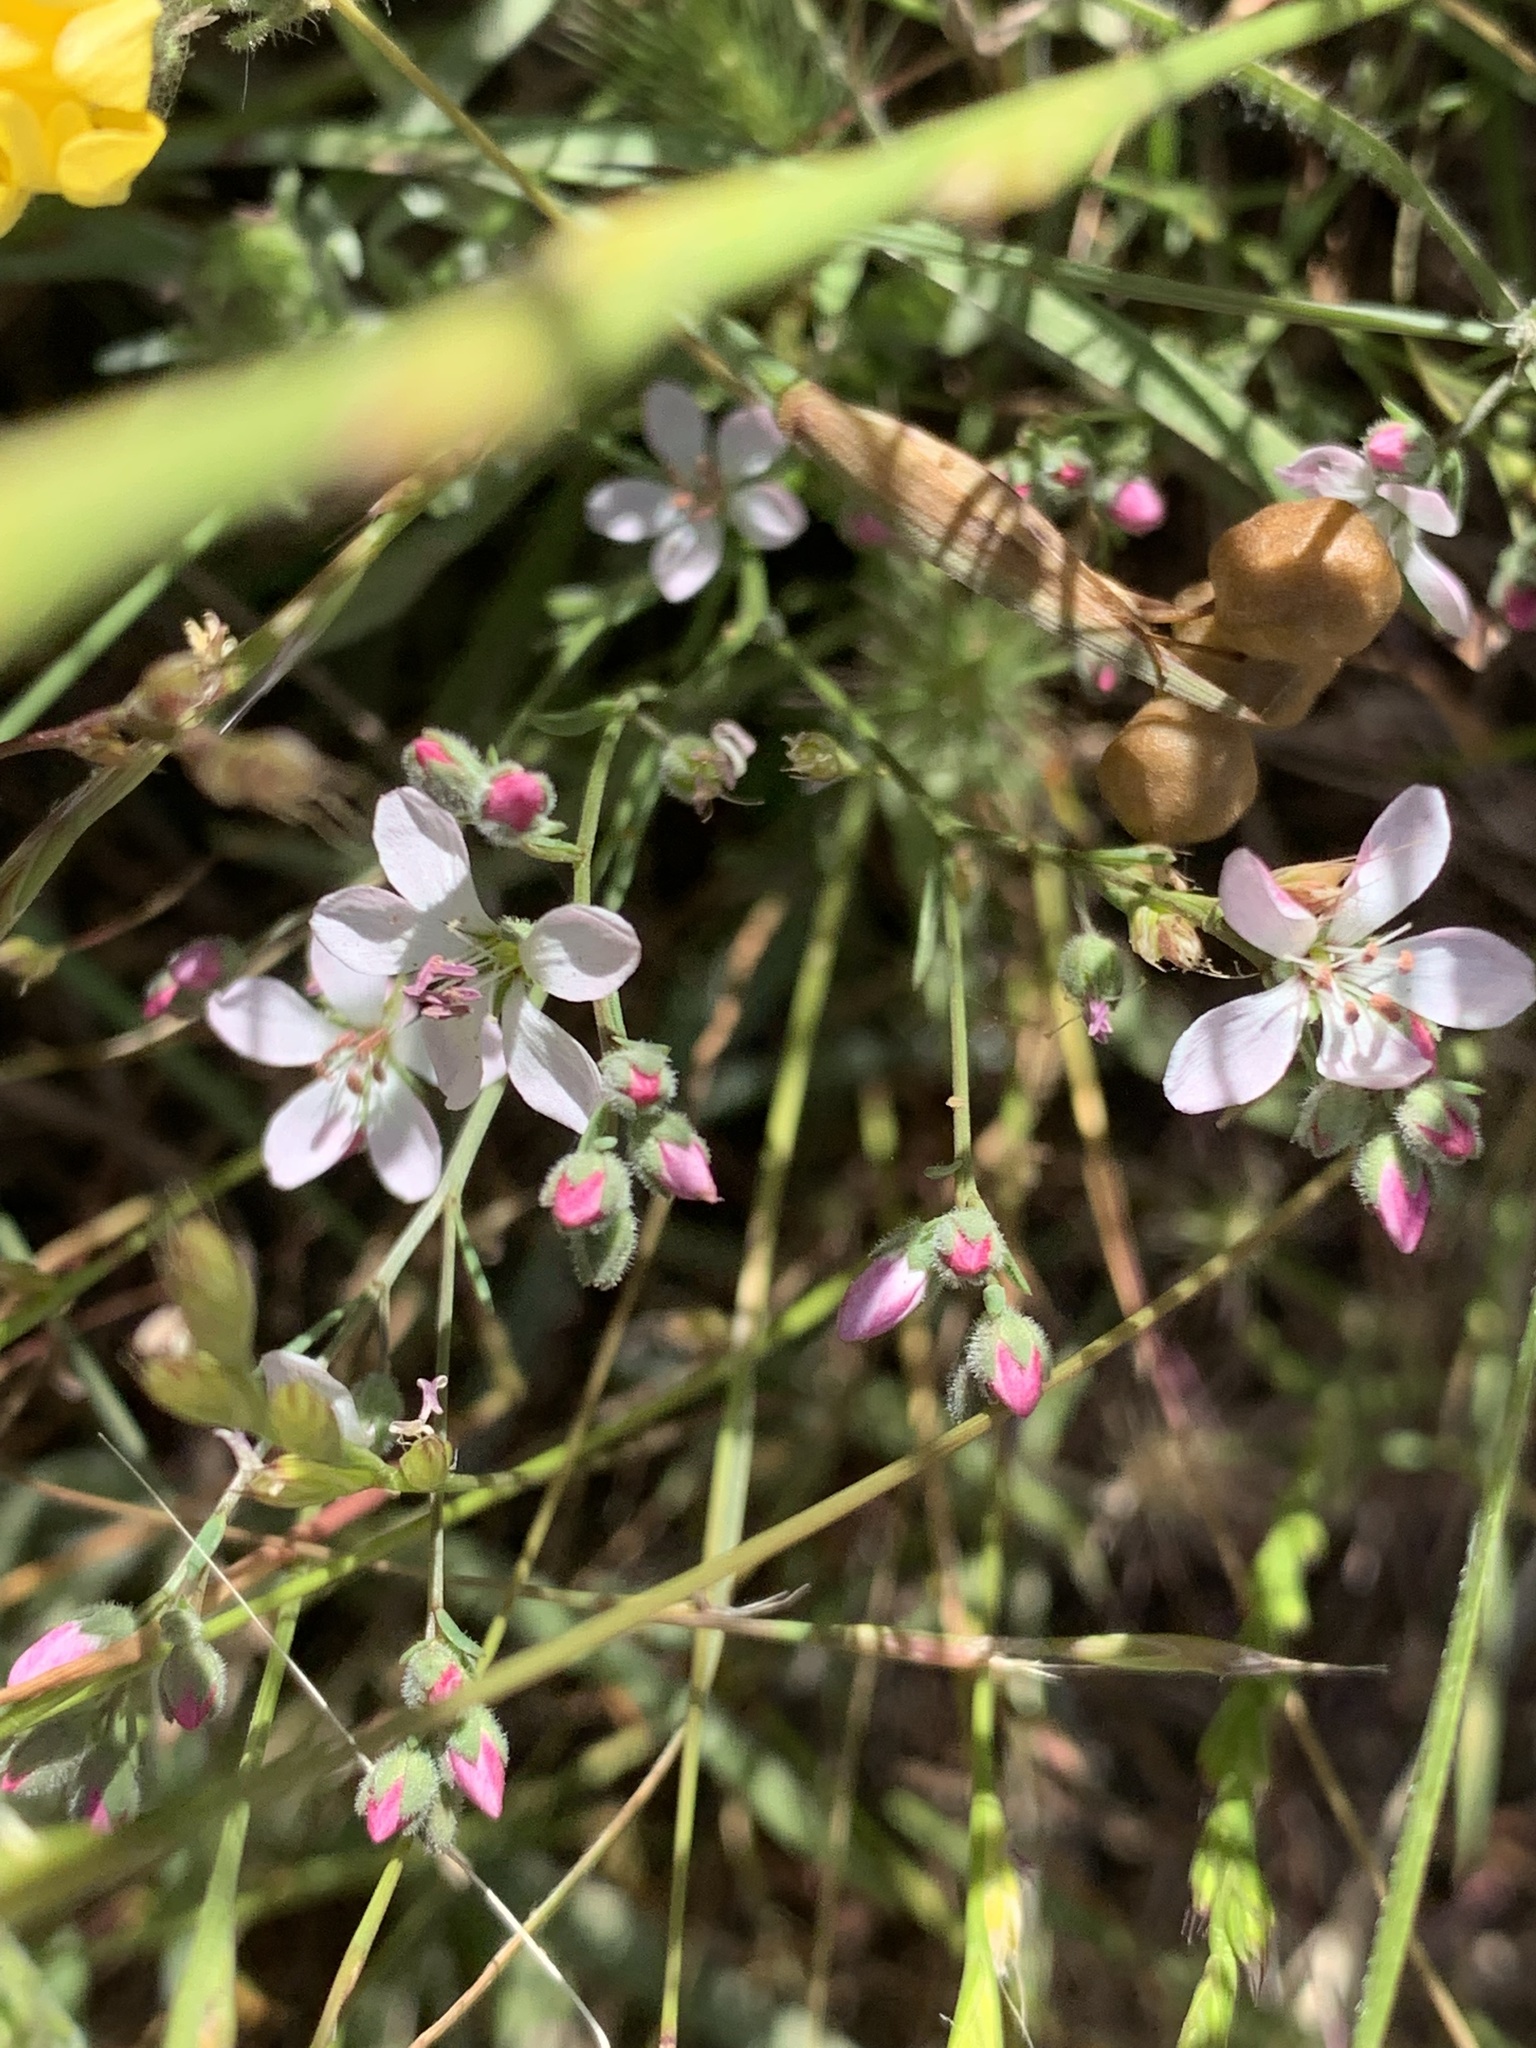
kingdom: Plantae
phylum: Tracheophyta
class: Magnoliopsida
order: Malpighiales
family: Linaceae
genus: Hesperolinon
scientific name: Hesperolinon congestum
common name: Marin dwarf-flax
